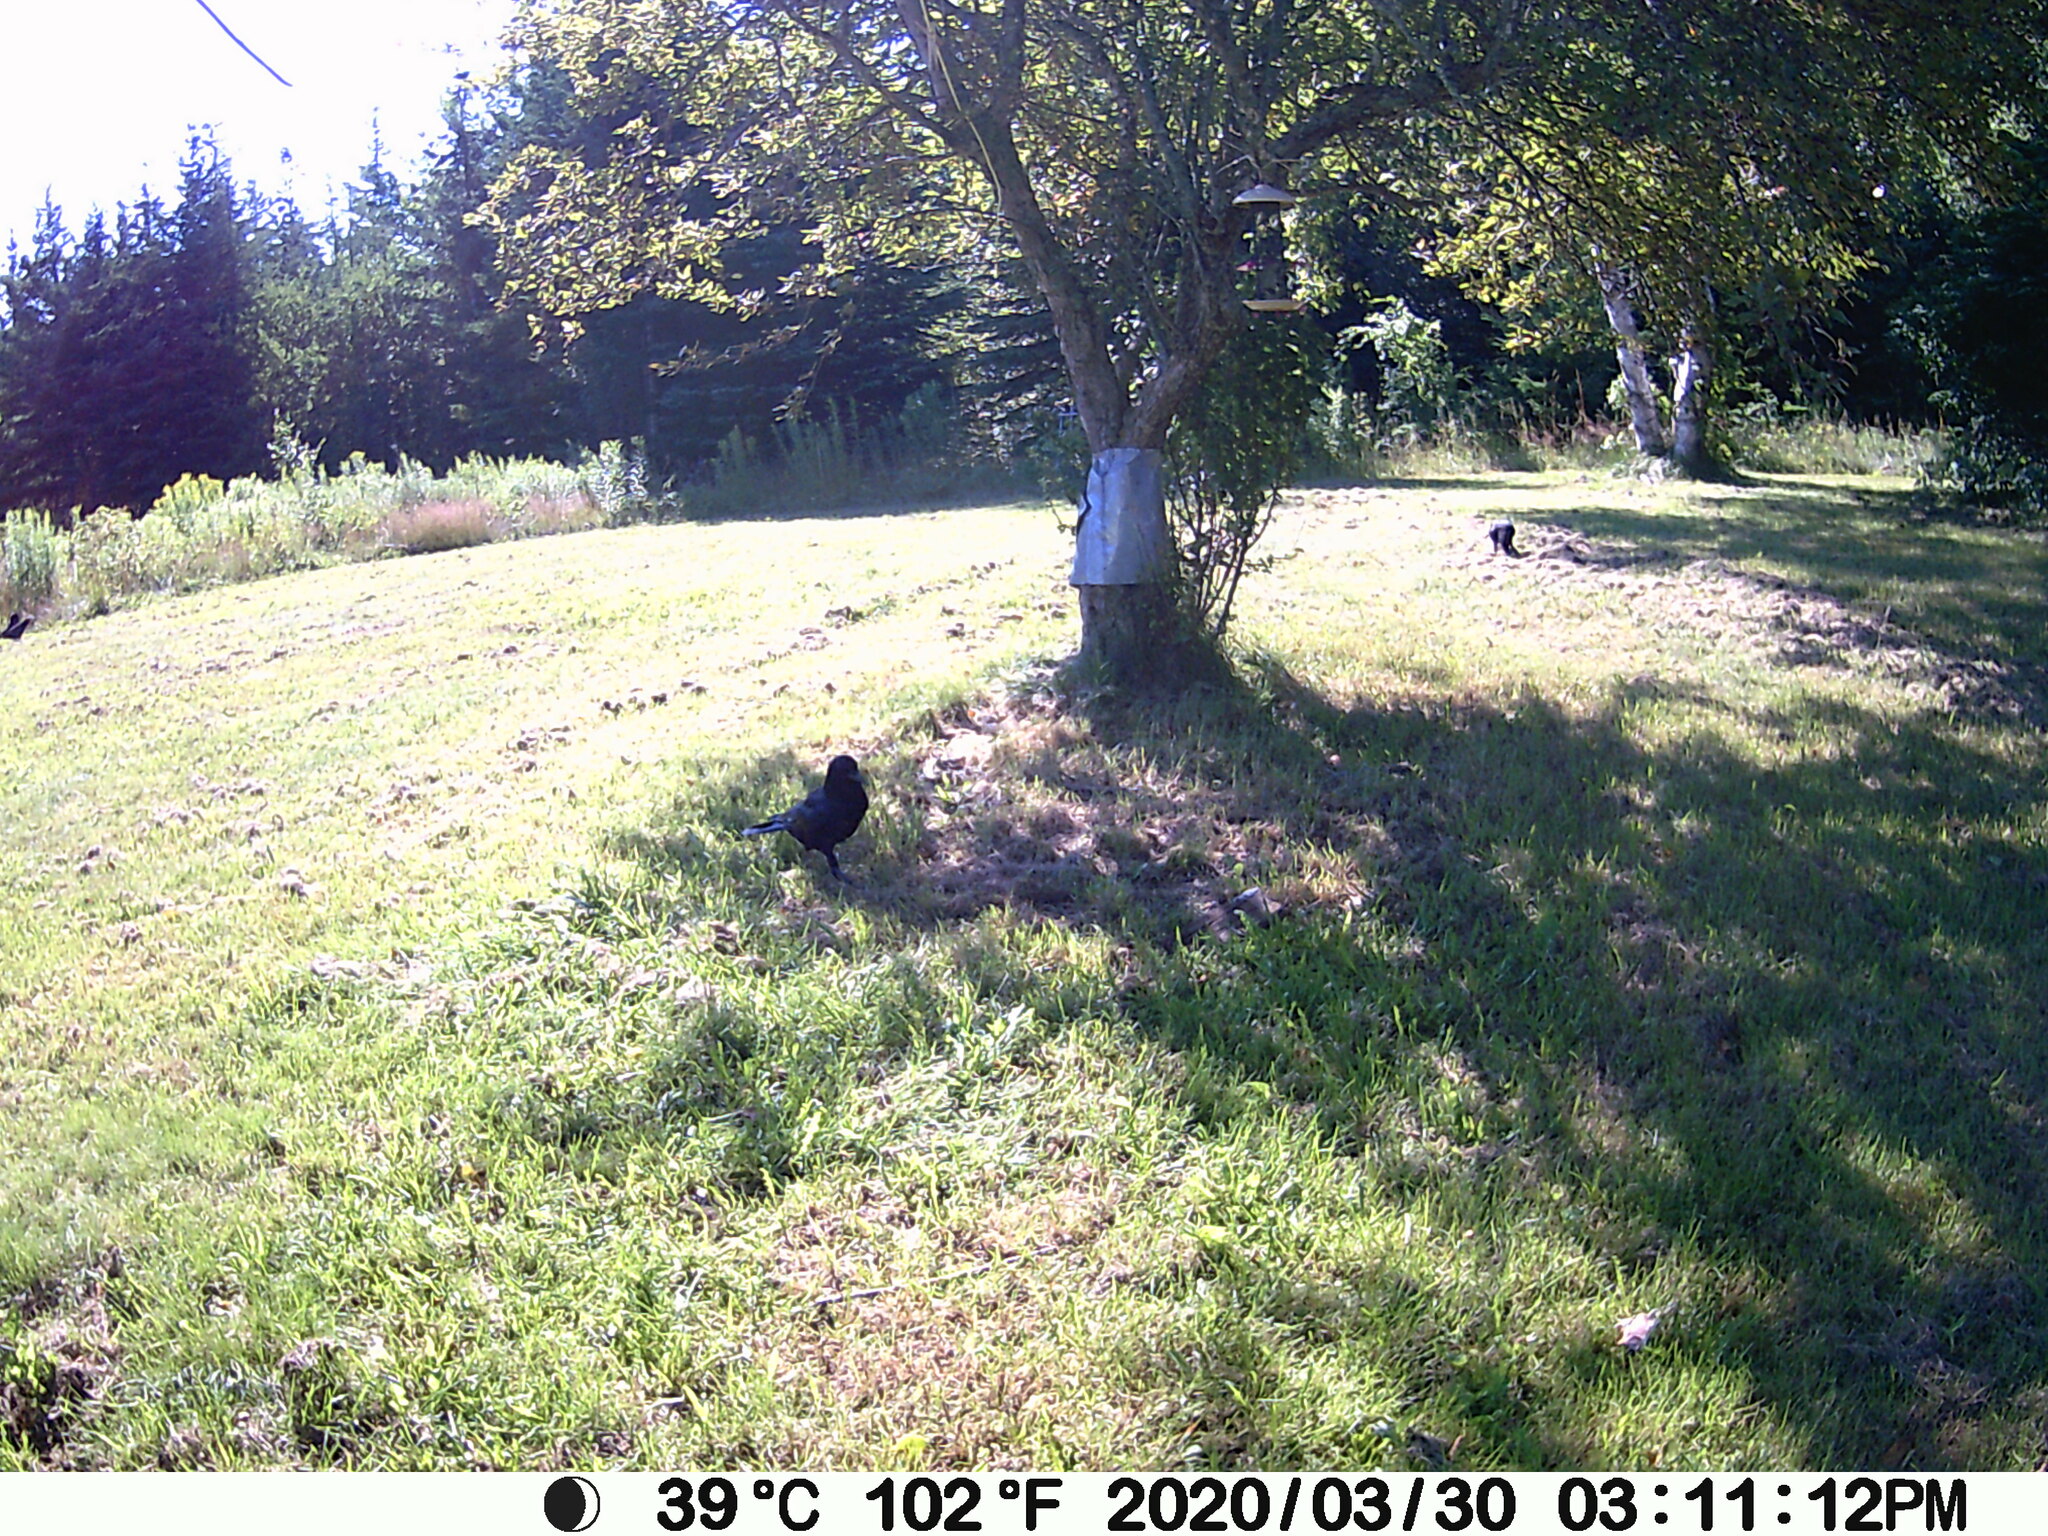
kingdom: Animalia
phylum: Chordata
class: Aves
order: Passeriformes
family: Corvidae
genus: Corvus
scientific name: Corvus brachyrhynchos
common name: American crow
